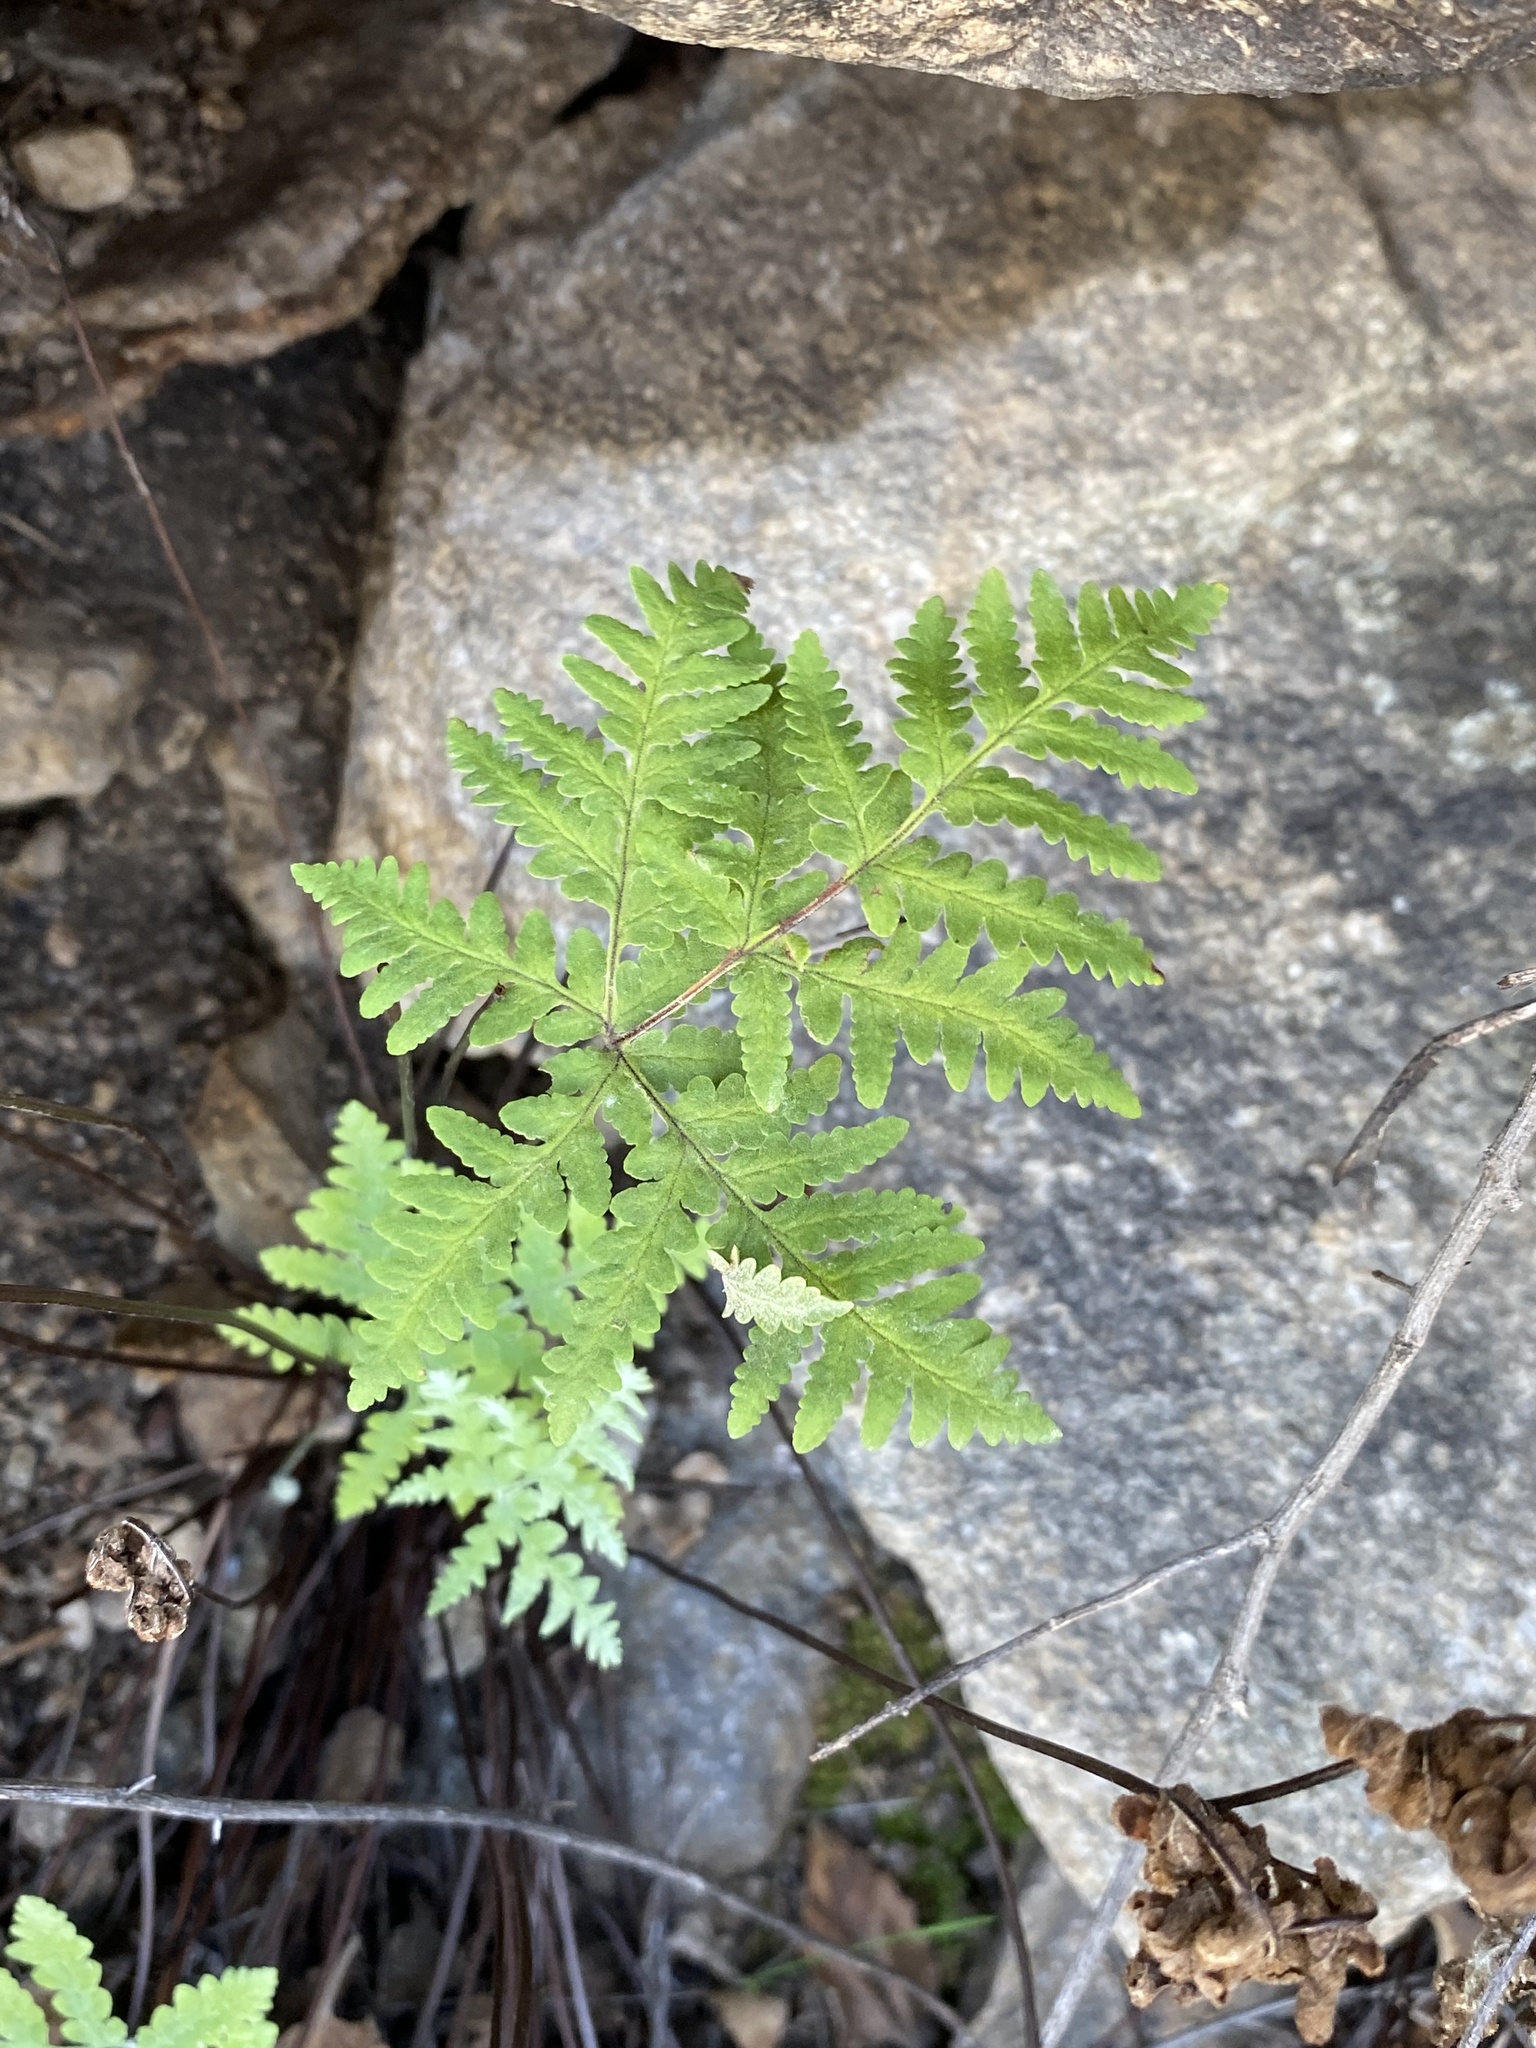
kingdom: Plantae
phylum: Tracheophyta
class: Polypodiopsida
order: Polypodiales
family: Pteridaceae
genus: Pentagramma
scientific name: Pentagramma maxonii
